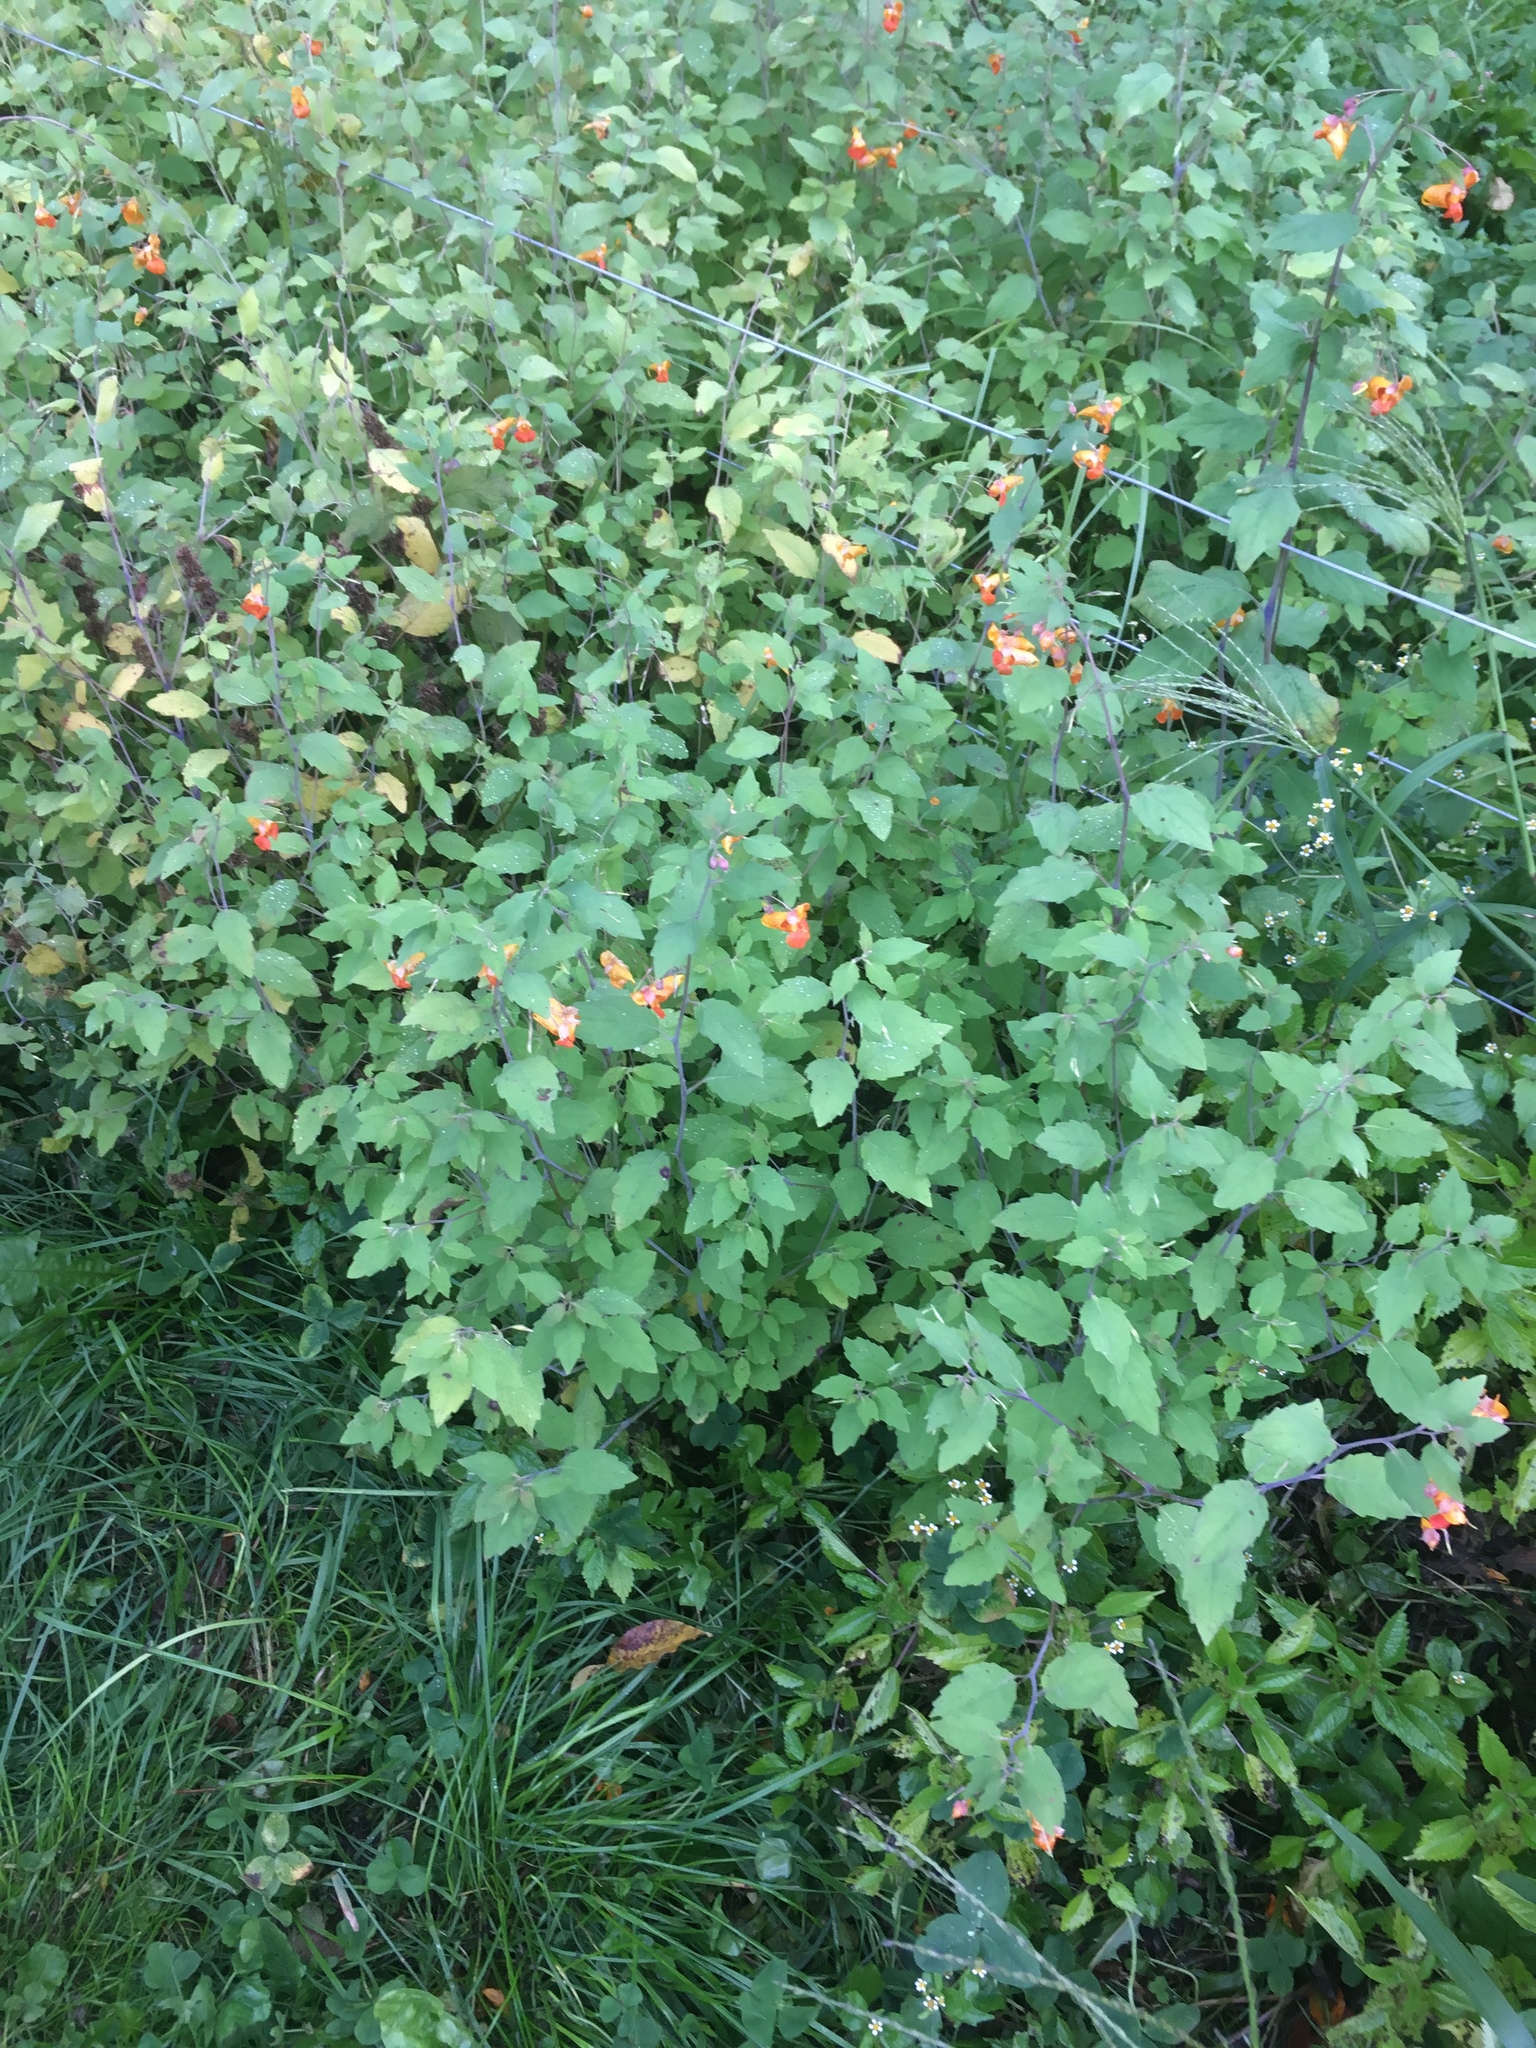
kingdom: Plantae
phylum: Tracheophyta
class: Magnoliopsida
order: Ericales
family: Balsaminaceae
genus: Impatiens
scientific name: Impatiens capensis
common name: Orange balsam
